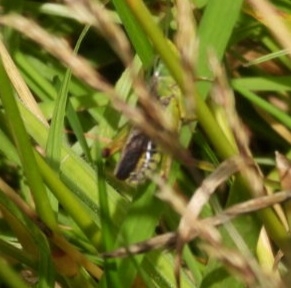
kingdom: Animalia
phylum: Arthropoda
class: Insecta
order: Orthoptera
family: Acrididae
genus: Omocestus
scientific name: Omocestus viridulus
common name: Common green grasshopper
